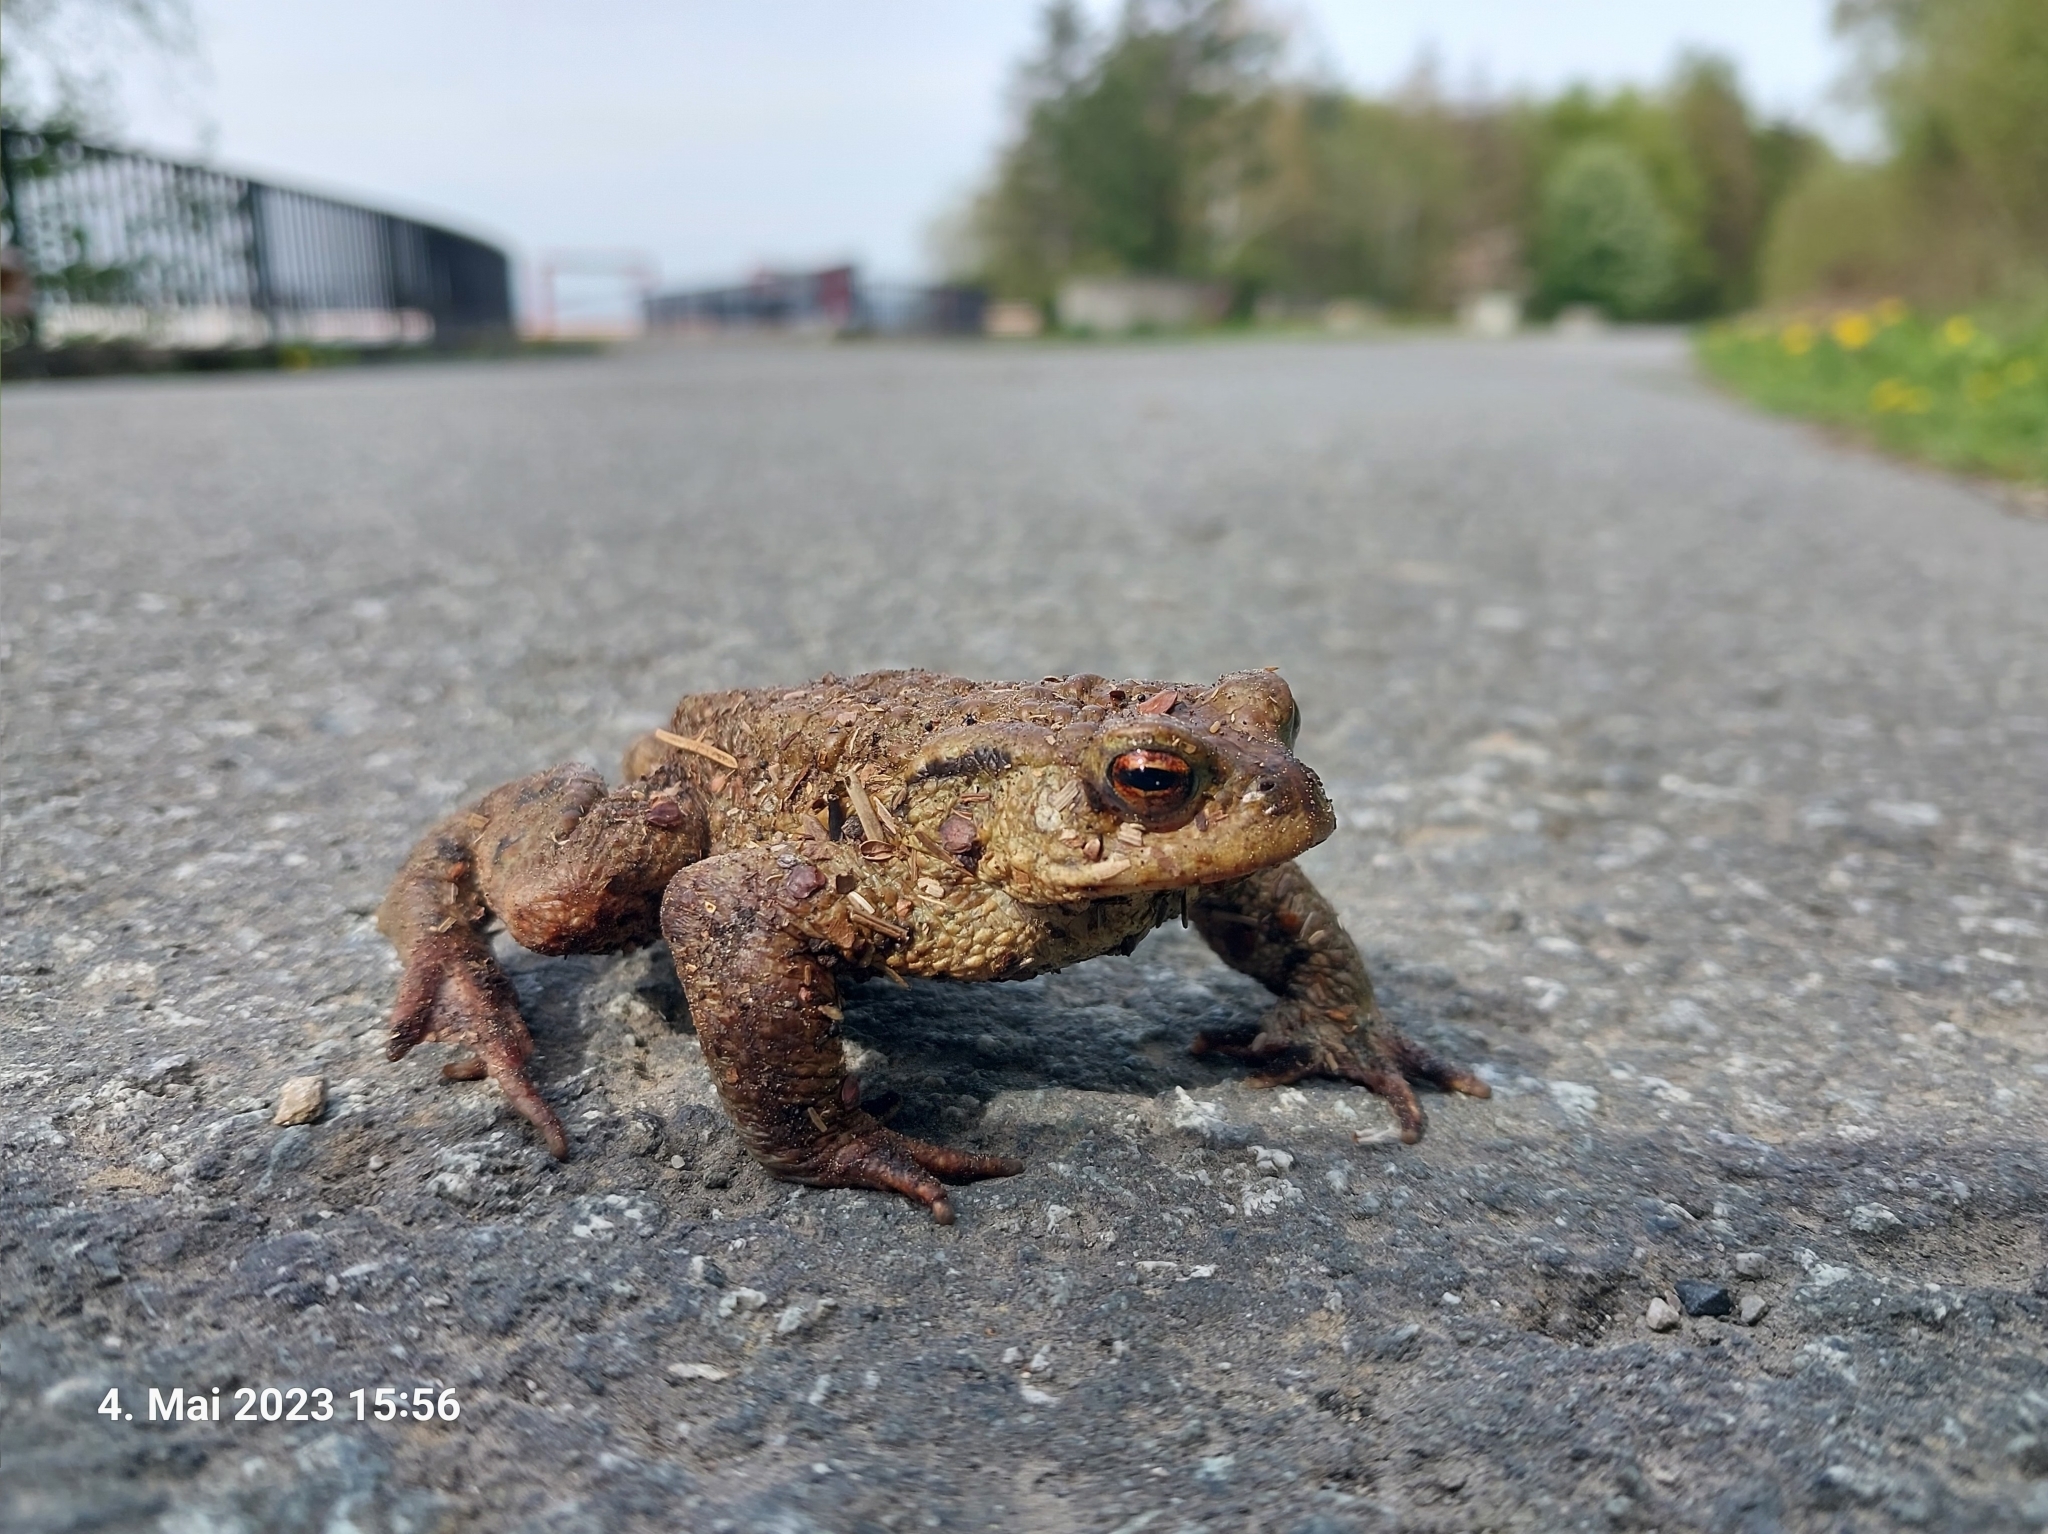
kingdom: Animalia
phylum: Chordata
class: Amphibia
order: Anura
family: Bufonidae
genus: Bufo
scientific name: Bufo bufo
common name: Common toad
